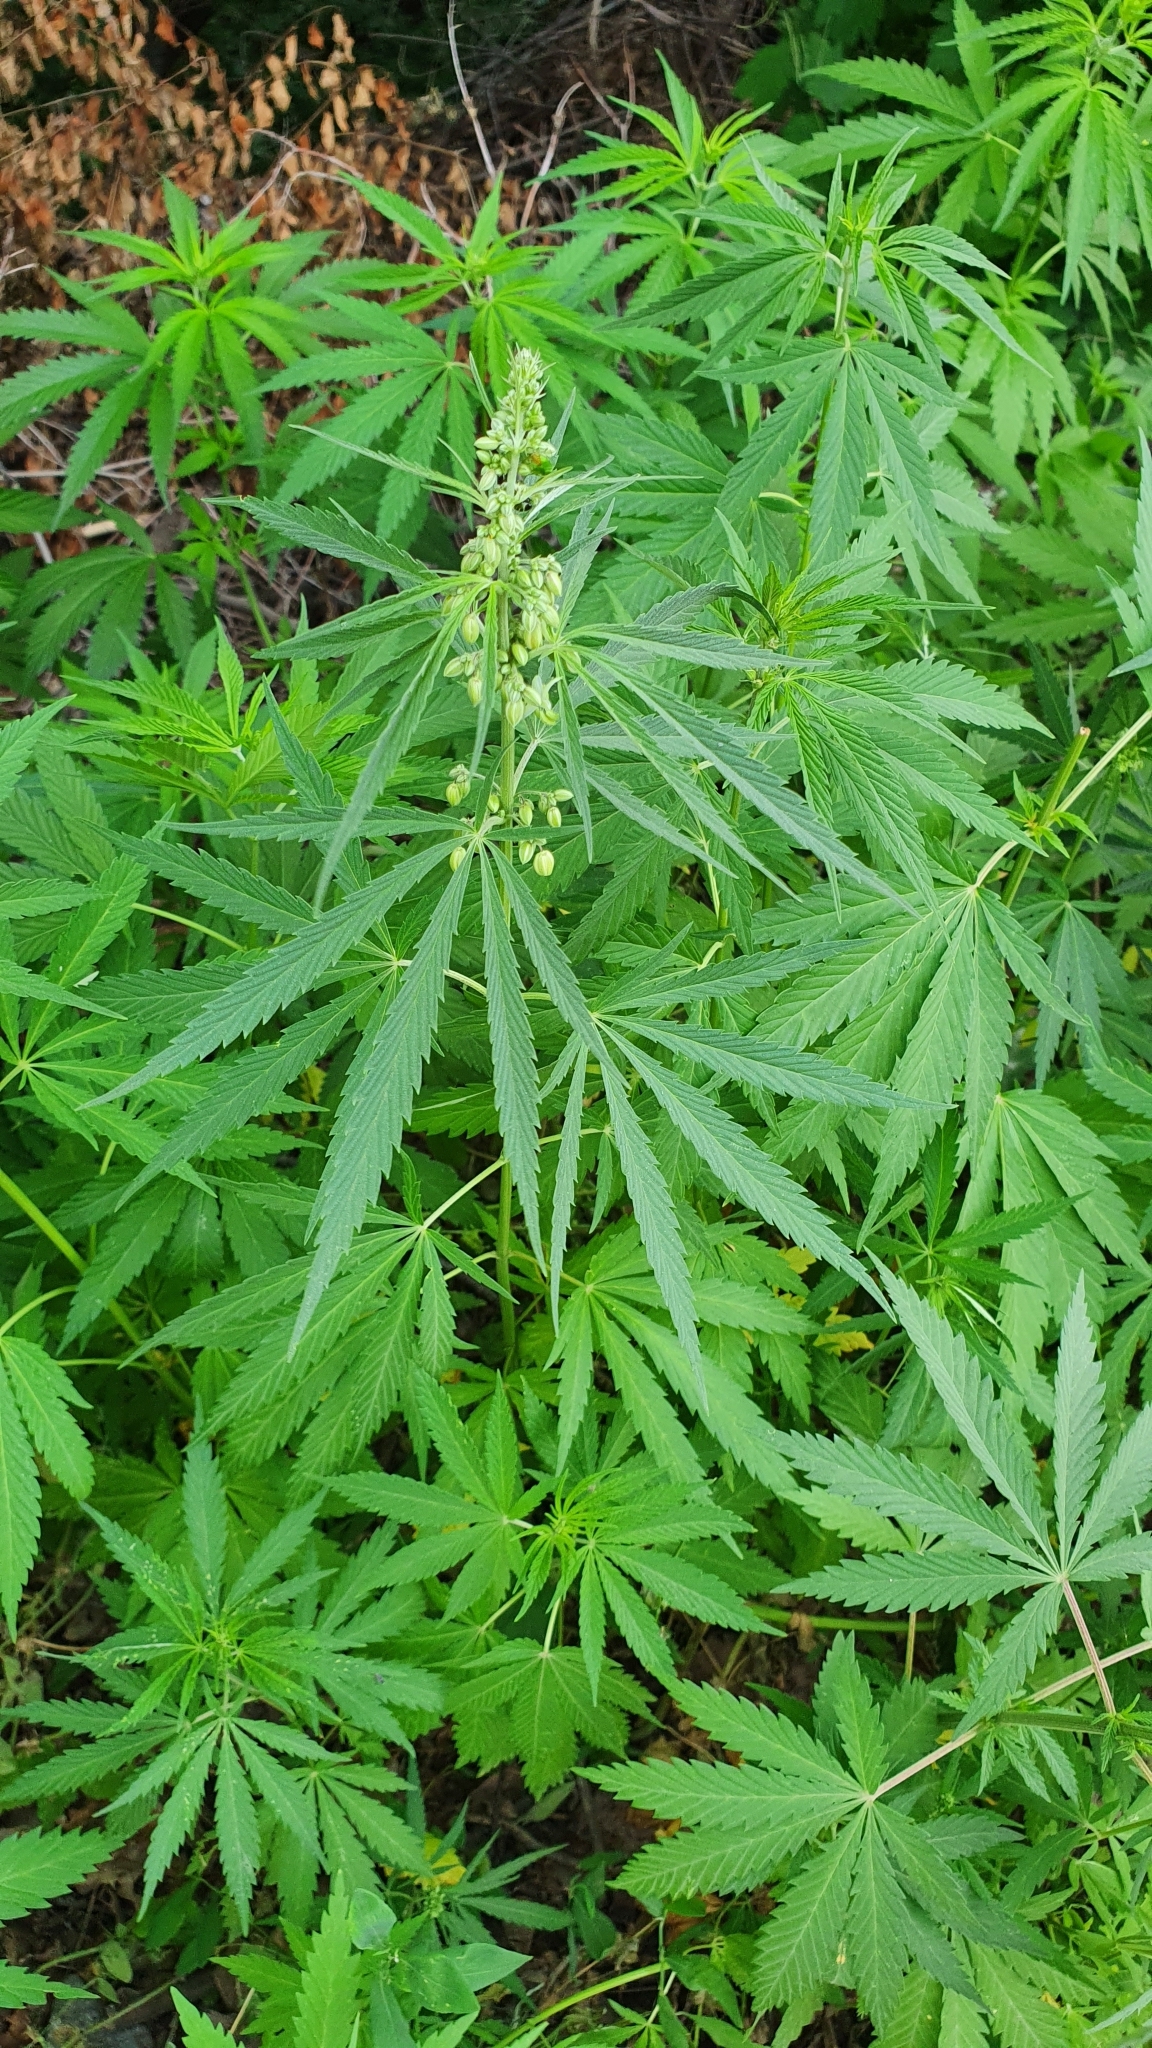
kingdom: Plantae
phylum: Tracheophyta
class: Magnoliopsida
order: Rosales
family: Cannabaceae
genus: Cannabis
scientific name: Cannabis sativa
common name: Hemp
